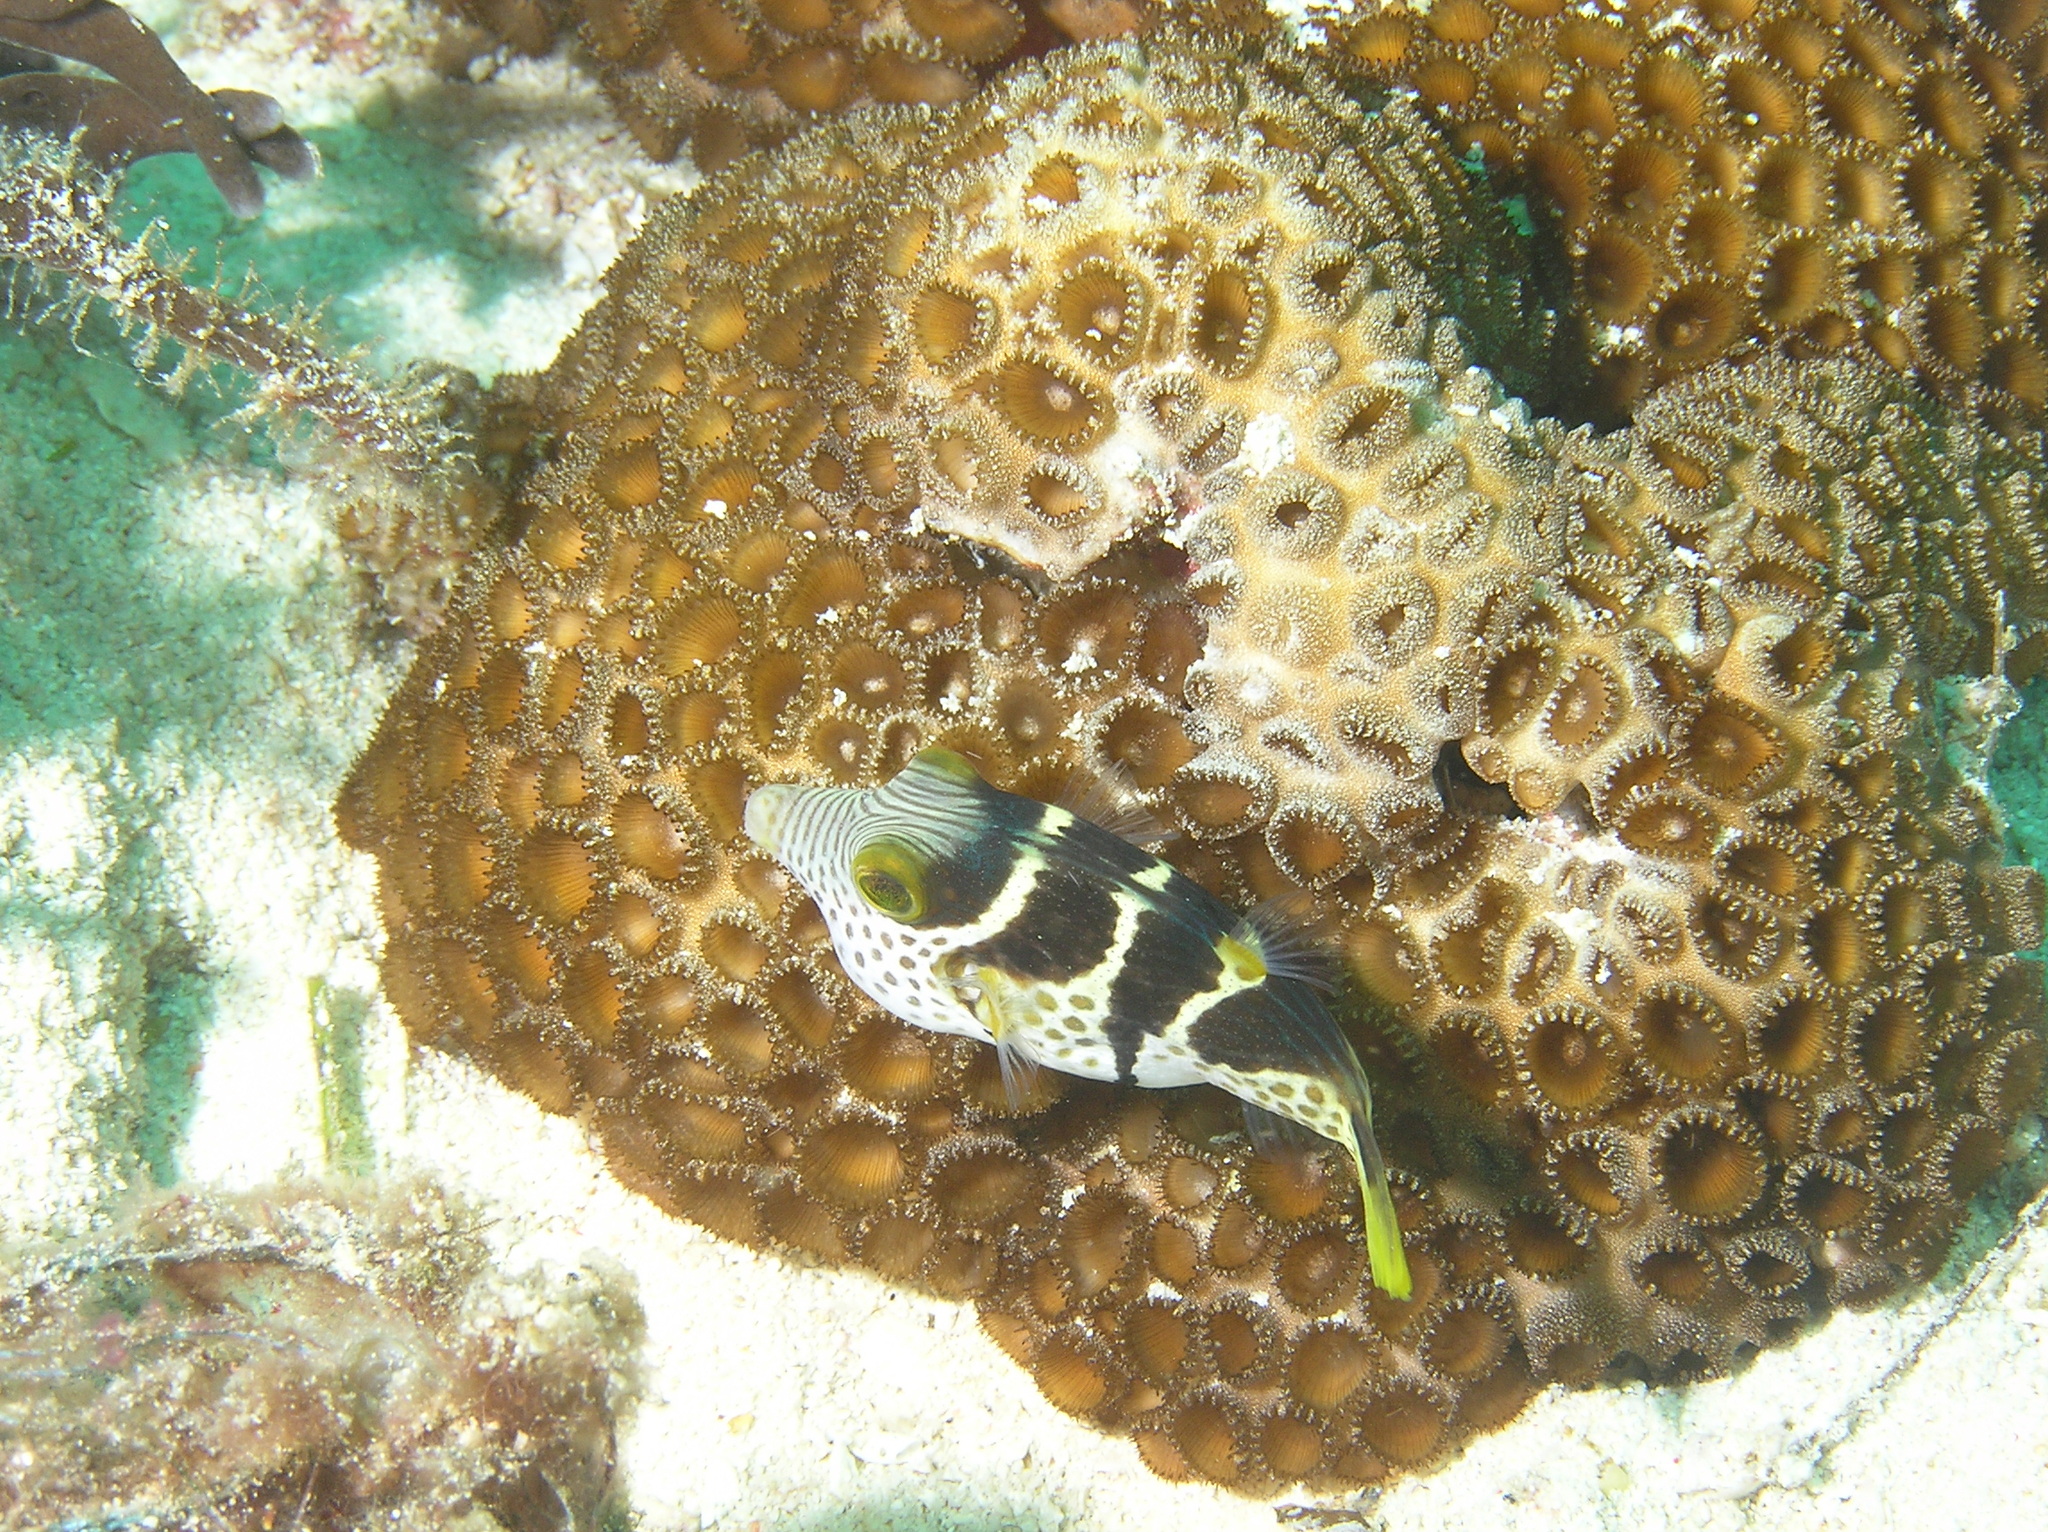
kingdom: Animalia
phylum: Chordata
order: Tetraodontiformes
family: Tetraodontidae
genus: Canthigaster
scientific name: Canthigaster valentini
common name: Banded toby
